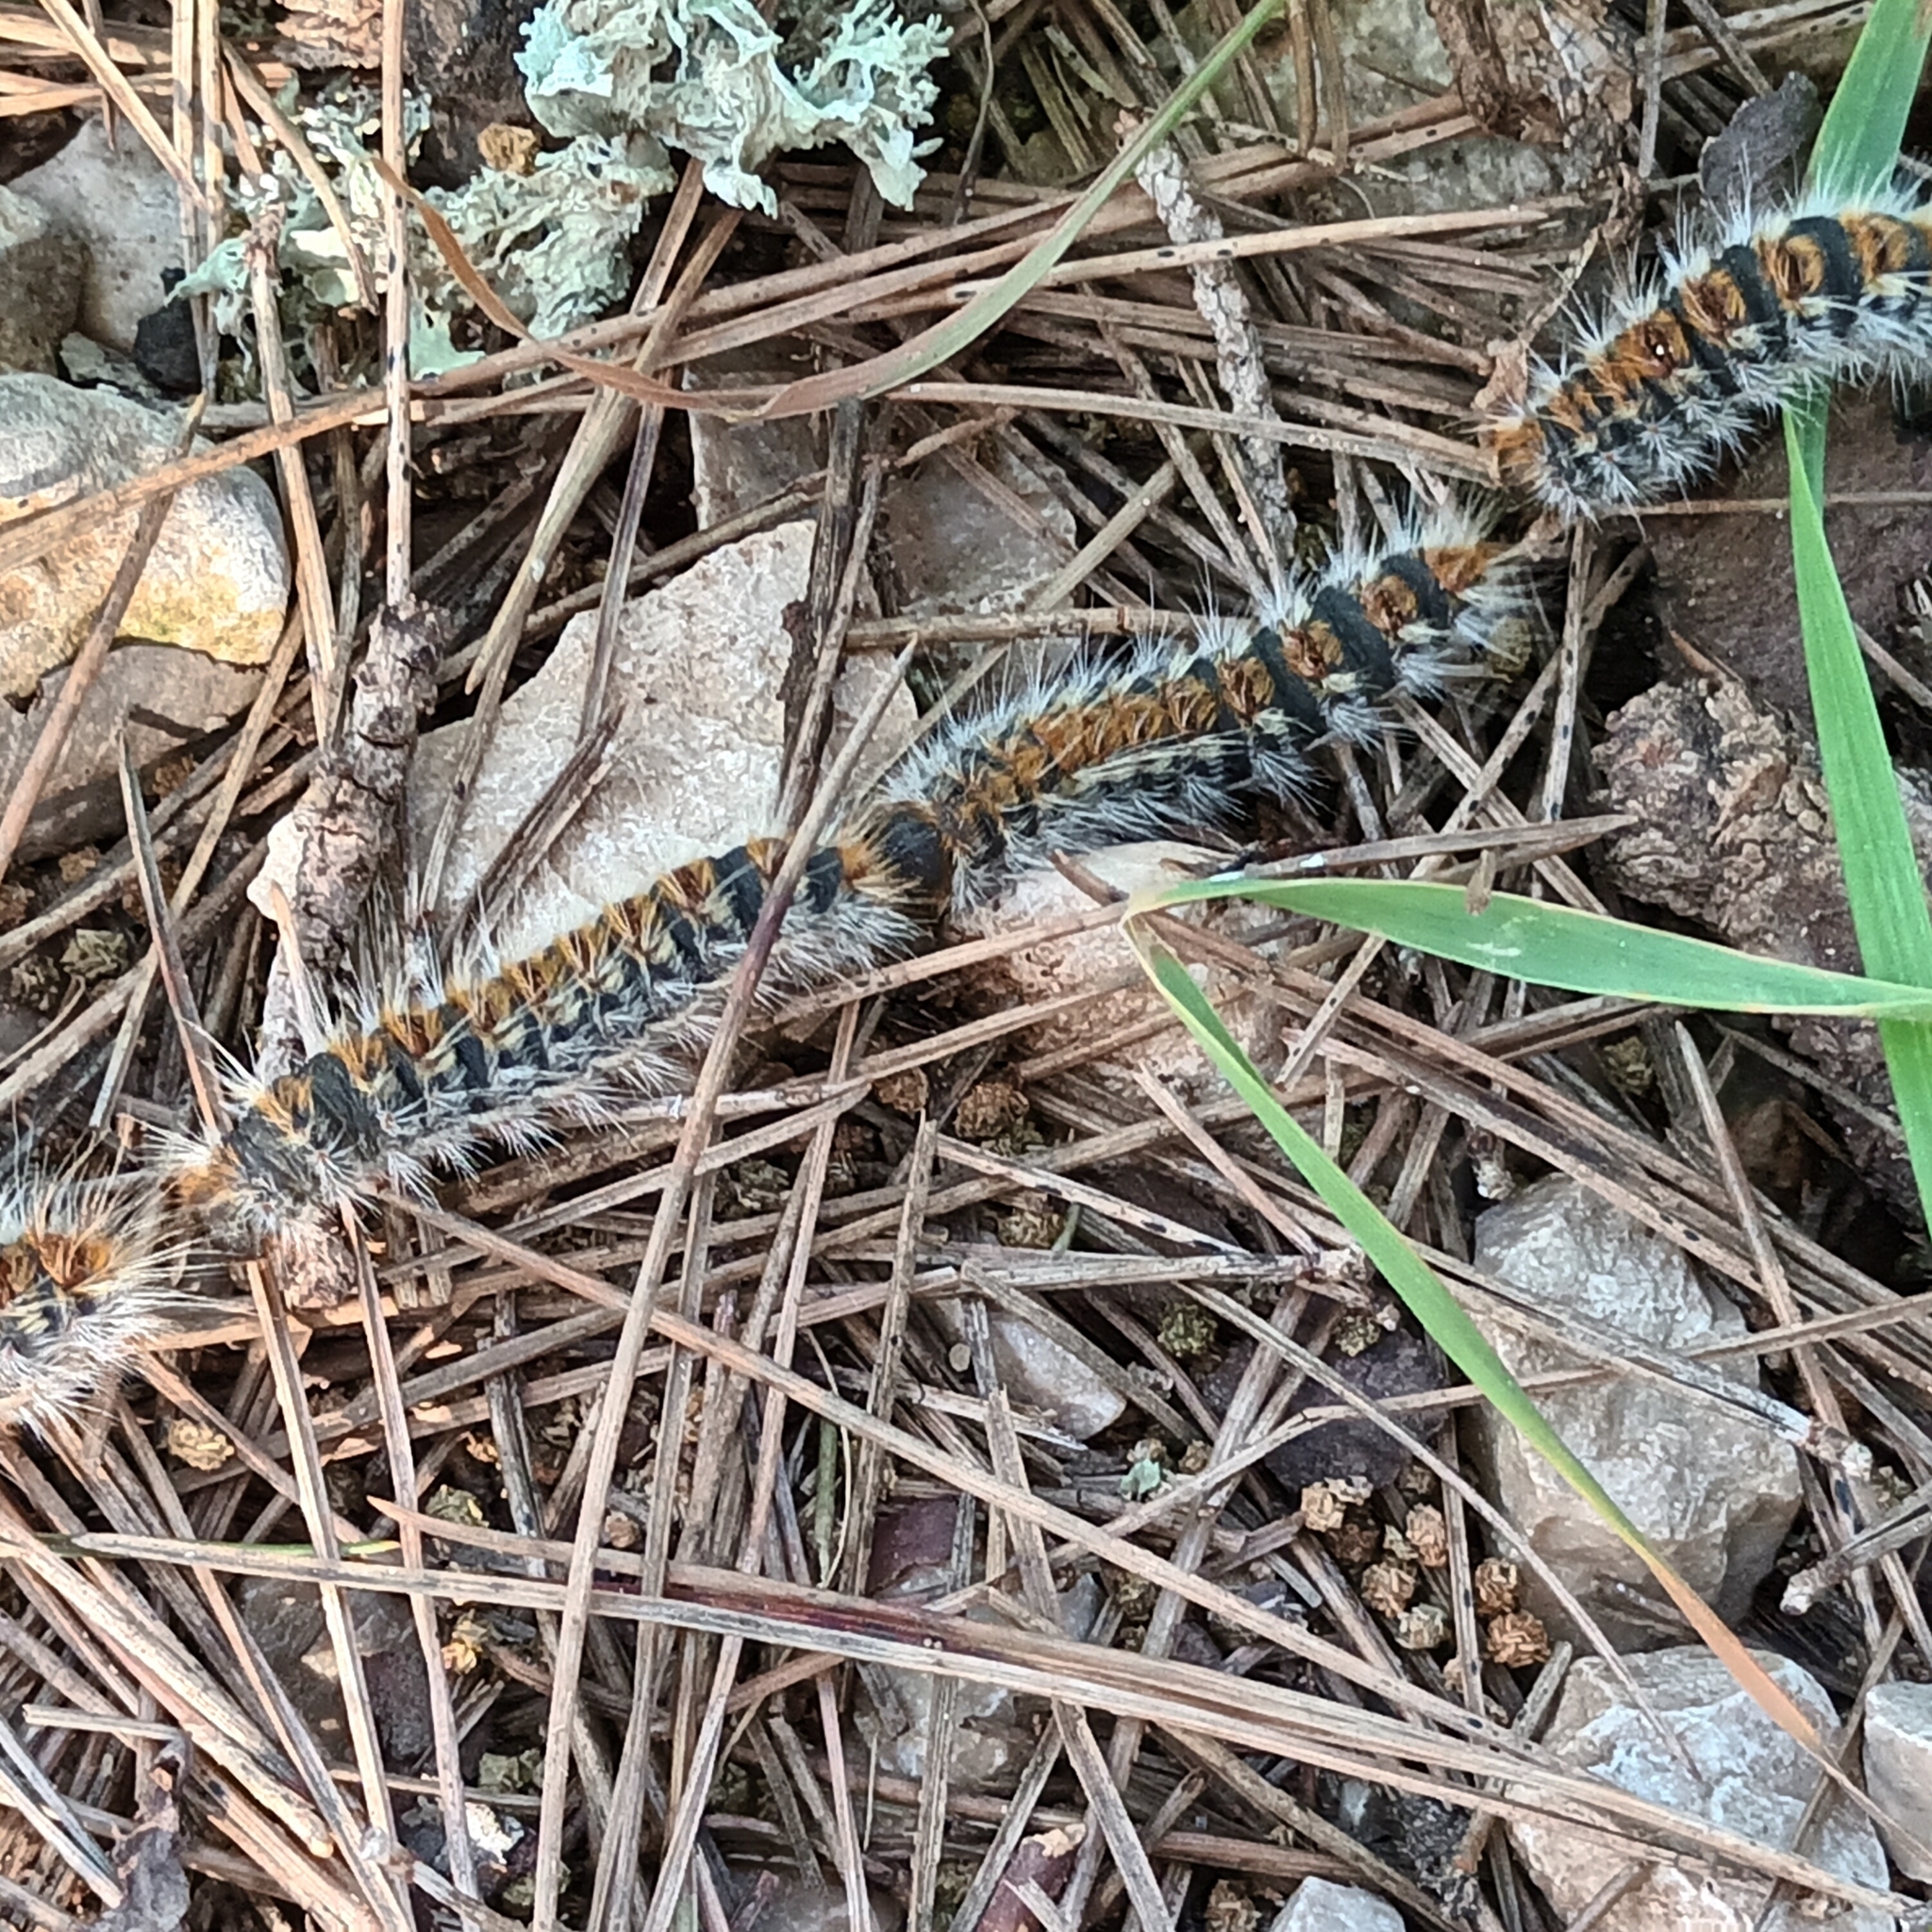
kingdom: Animalia
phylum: Arthropoda
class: Insecta
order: Lepidoptera
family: Notodontidae
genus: Thaumetopoea
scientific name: Thaumetopoea pityocampa
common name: Pine processionary
